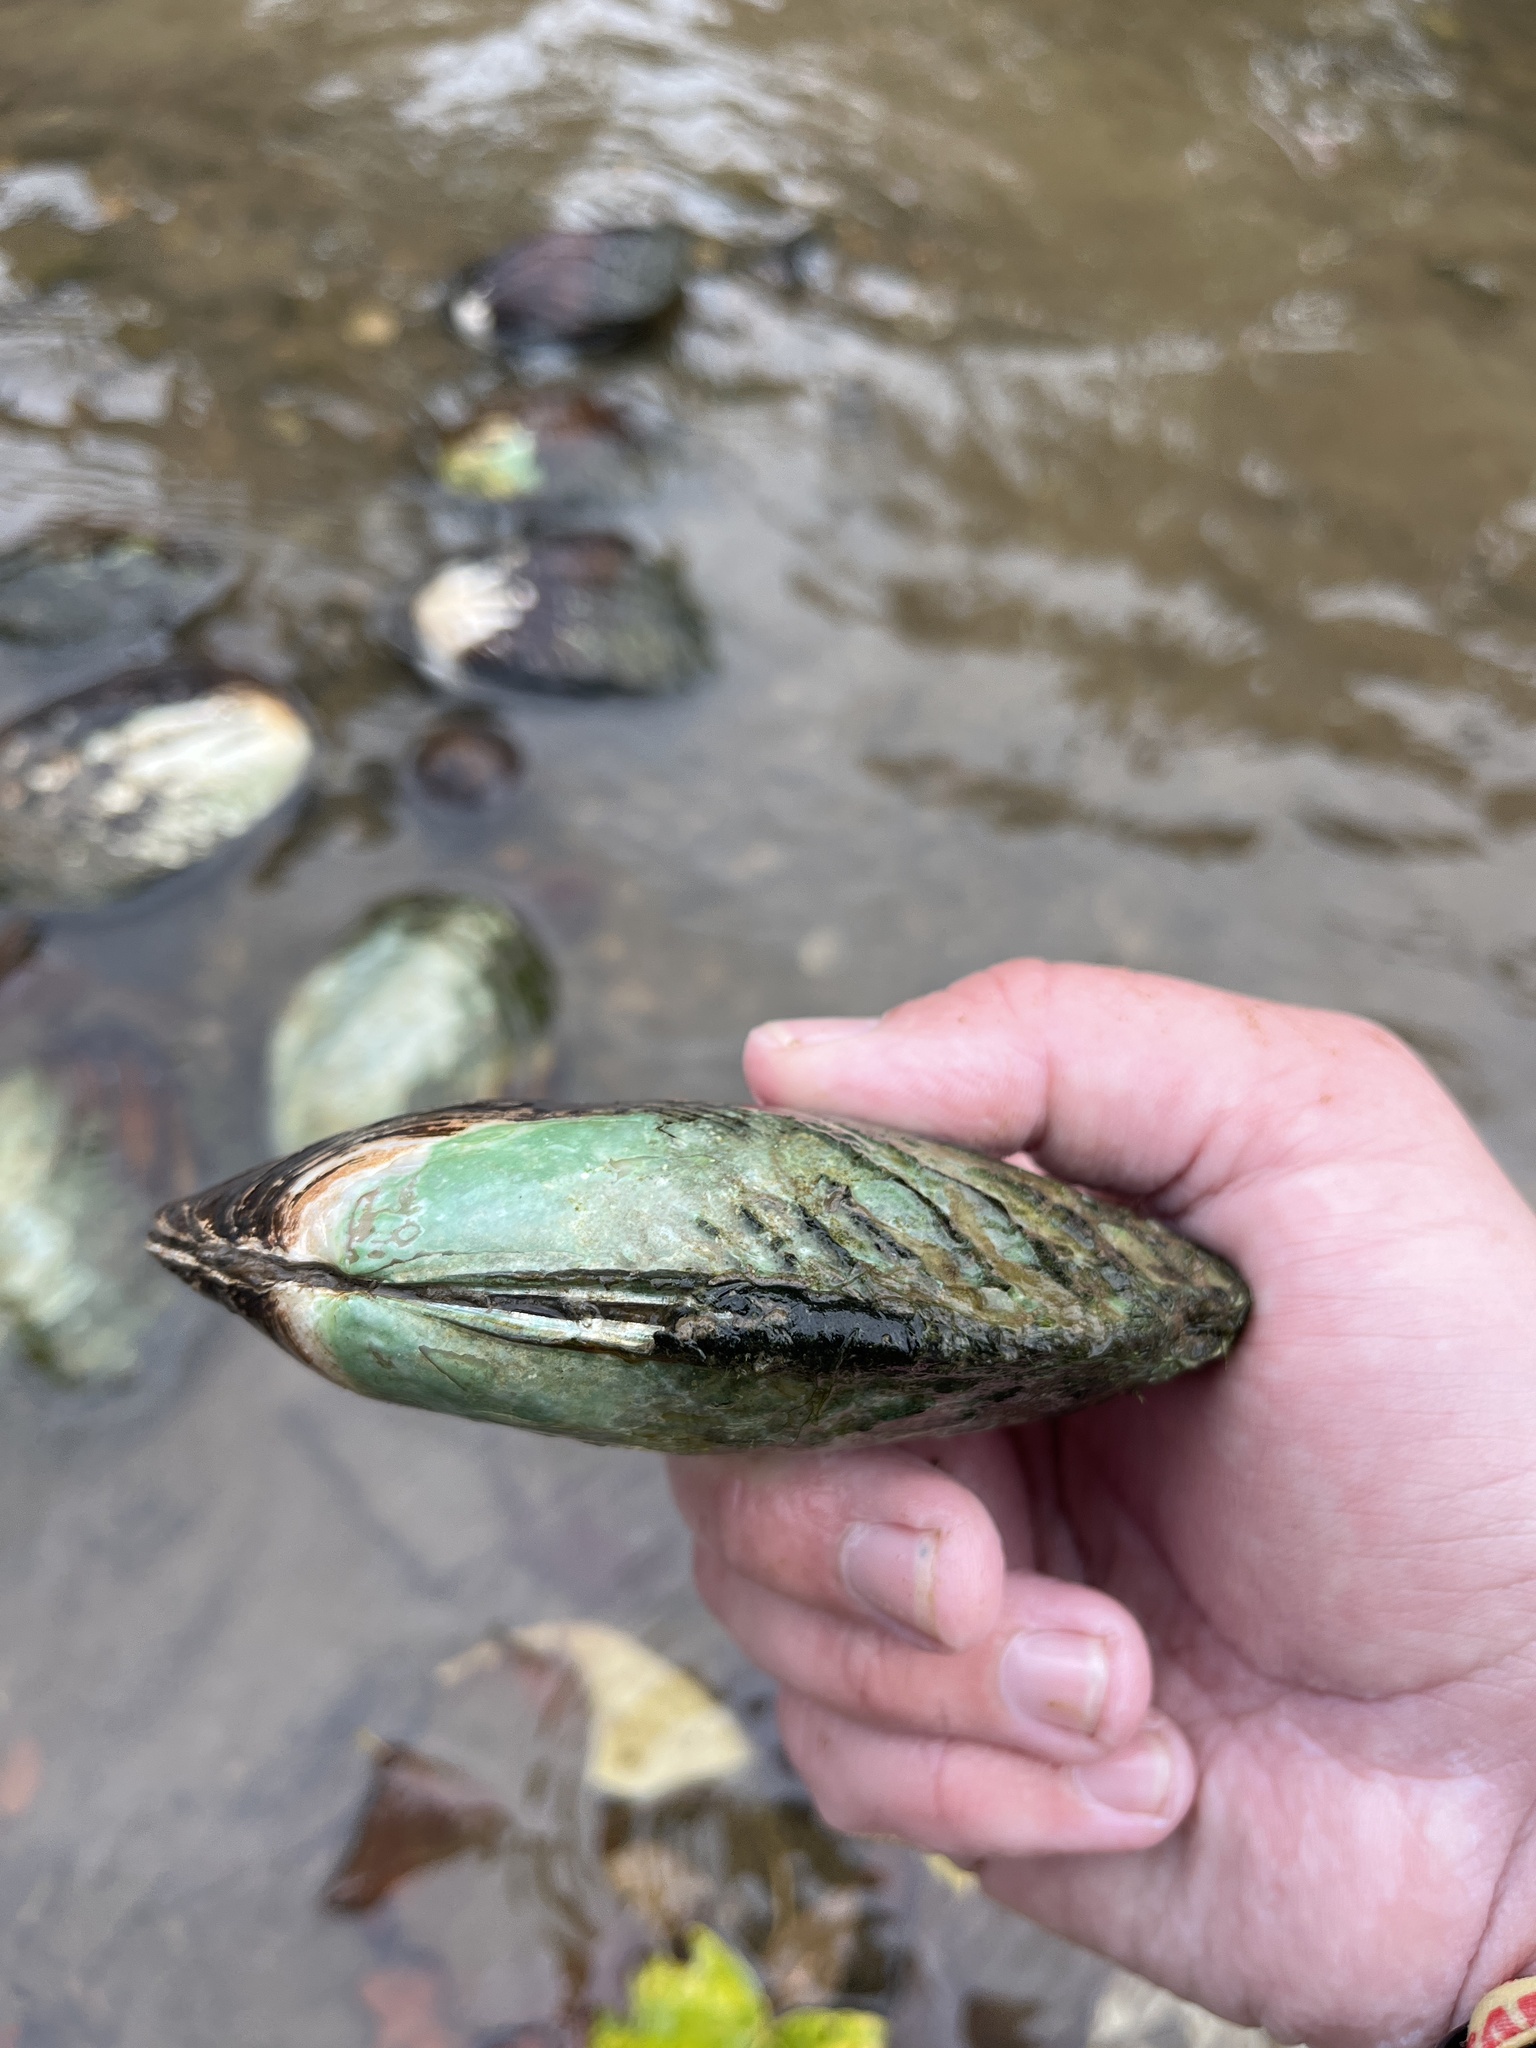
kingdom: Animalia
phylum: Mollusca
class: Bivalvia
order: Unionida
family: Unionidae
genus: Lasmigona
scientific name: Lasmigona costata
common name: Flutedshell
